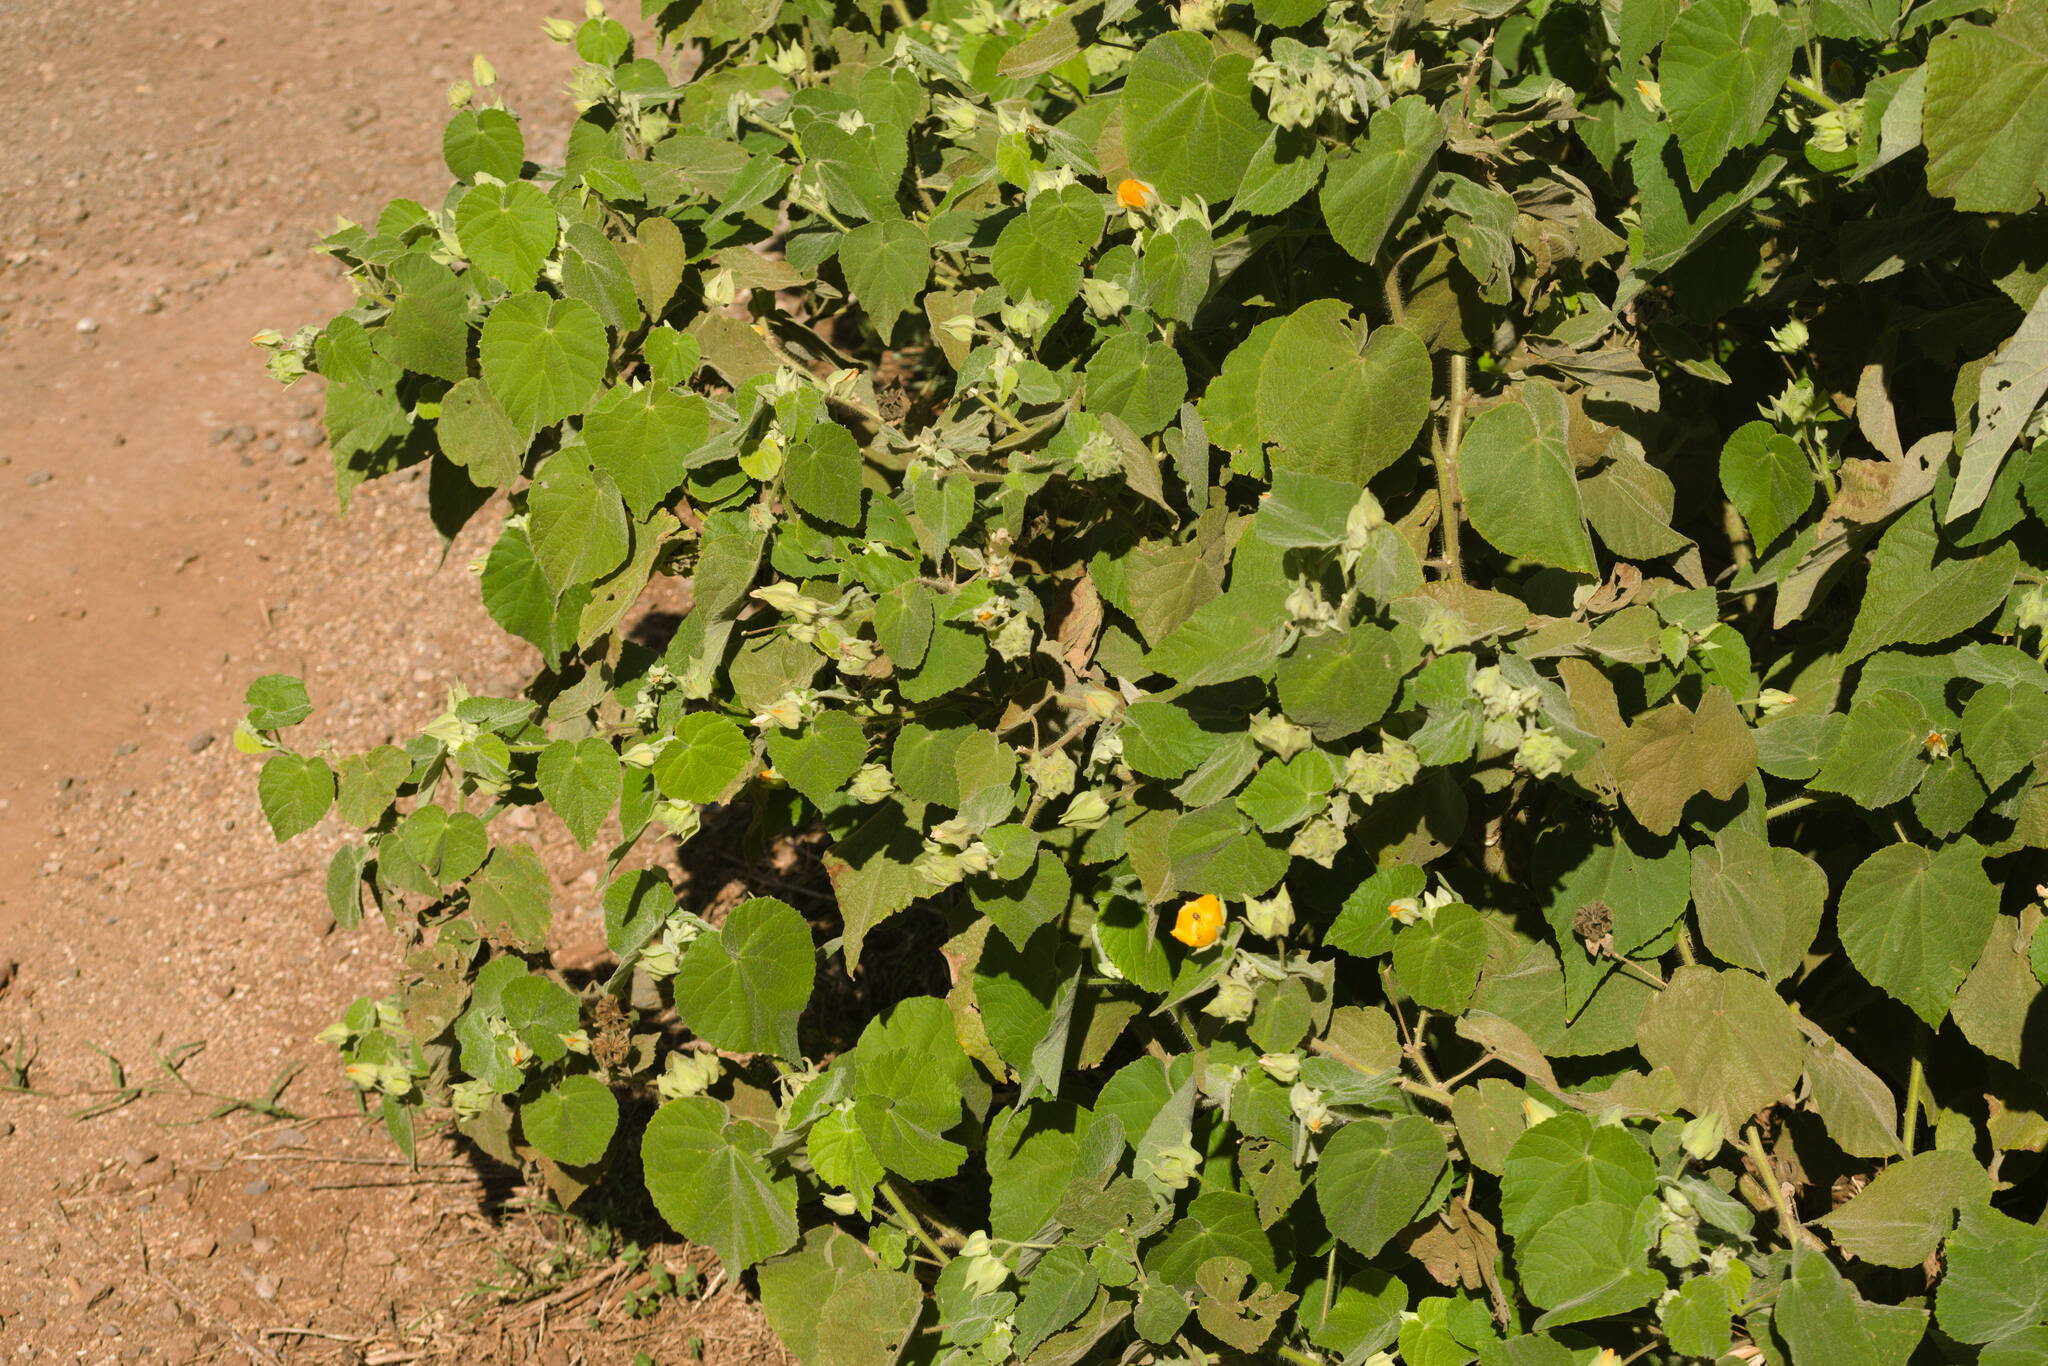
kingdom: Plantae
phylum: Tracheophyta
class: Magnoliopsida
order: Malvales
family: Malvaceae
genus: Abutilon
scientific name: Abutilon grandifolium
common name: Hairy abutilon
